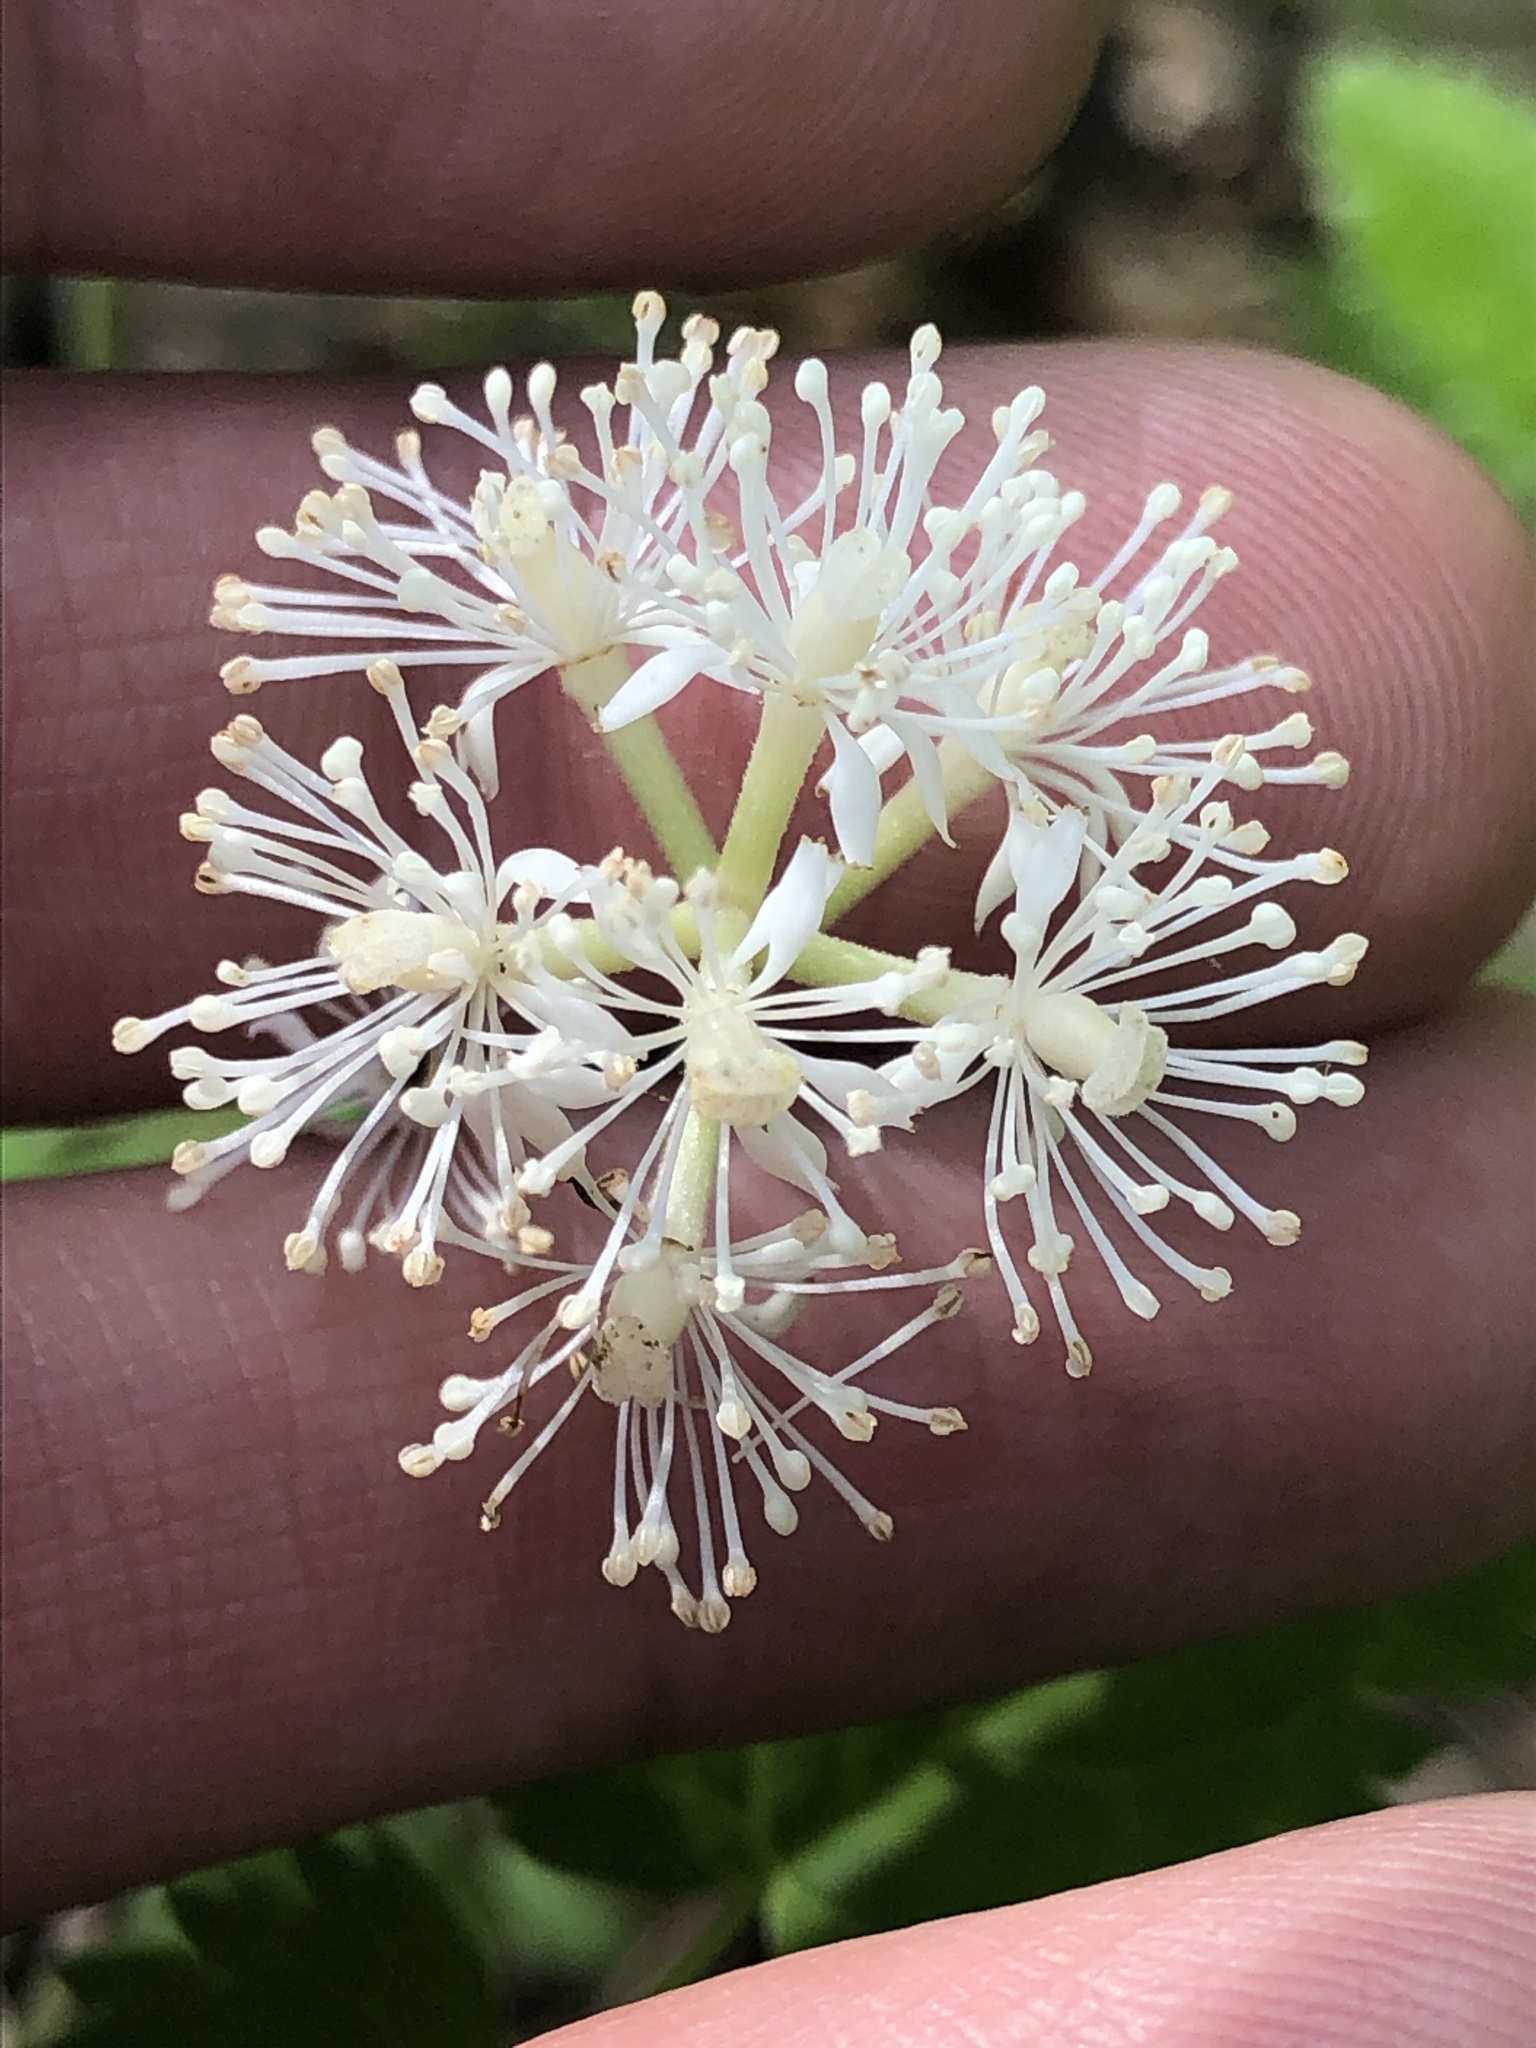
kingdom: Plantae
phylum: Tracheophyta
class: Magnoliopsida
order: Ranunculales
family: Ranunculaceae
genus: Actaea
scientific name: Actaea pachypoda
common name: Doll's-eyes
